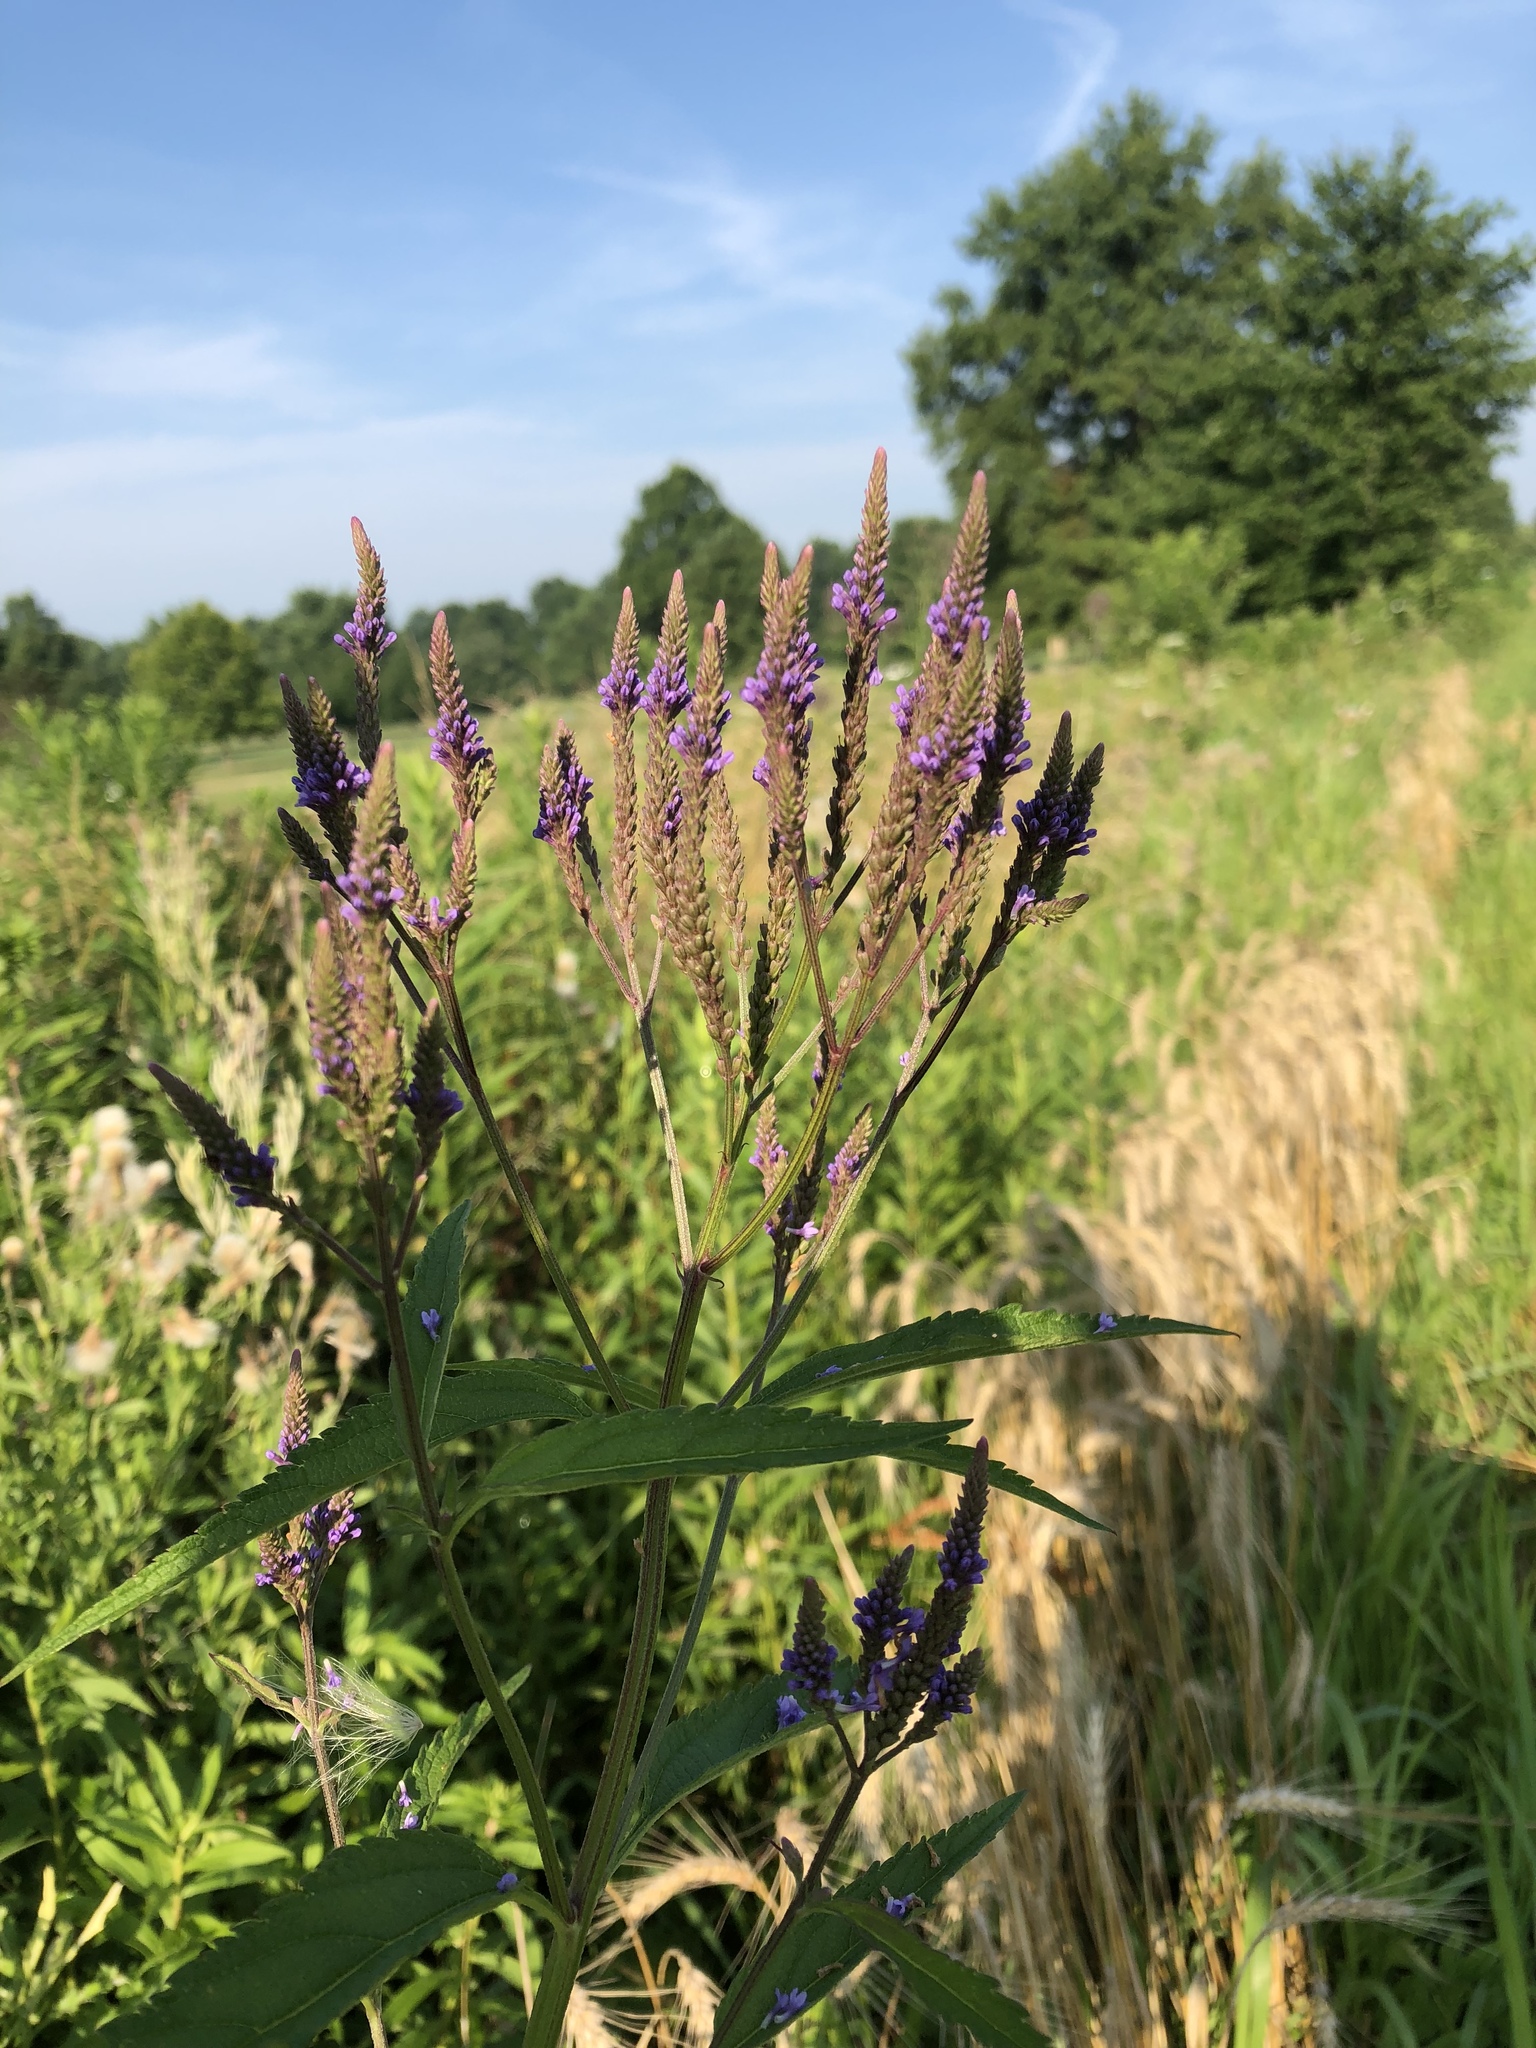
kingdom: Plantae
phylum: Tracheophyta
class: Magnoliopsida
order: Lamiales
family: Verbenaceae
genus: Verbena
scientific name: Verbena hastata
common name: American blue vervain
